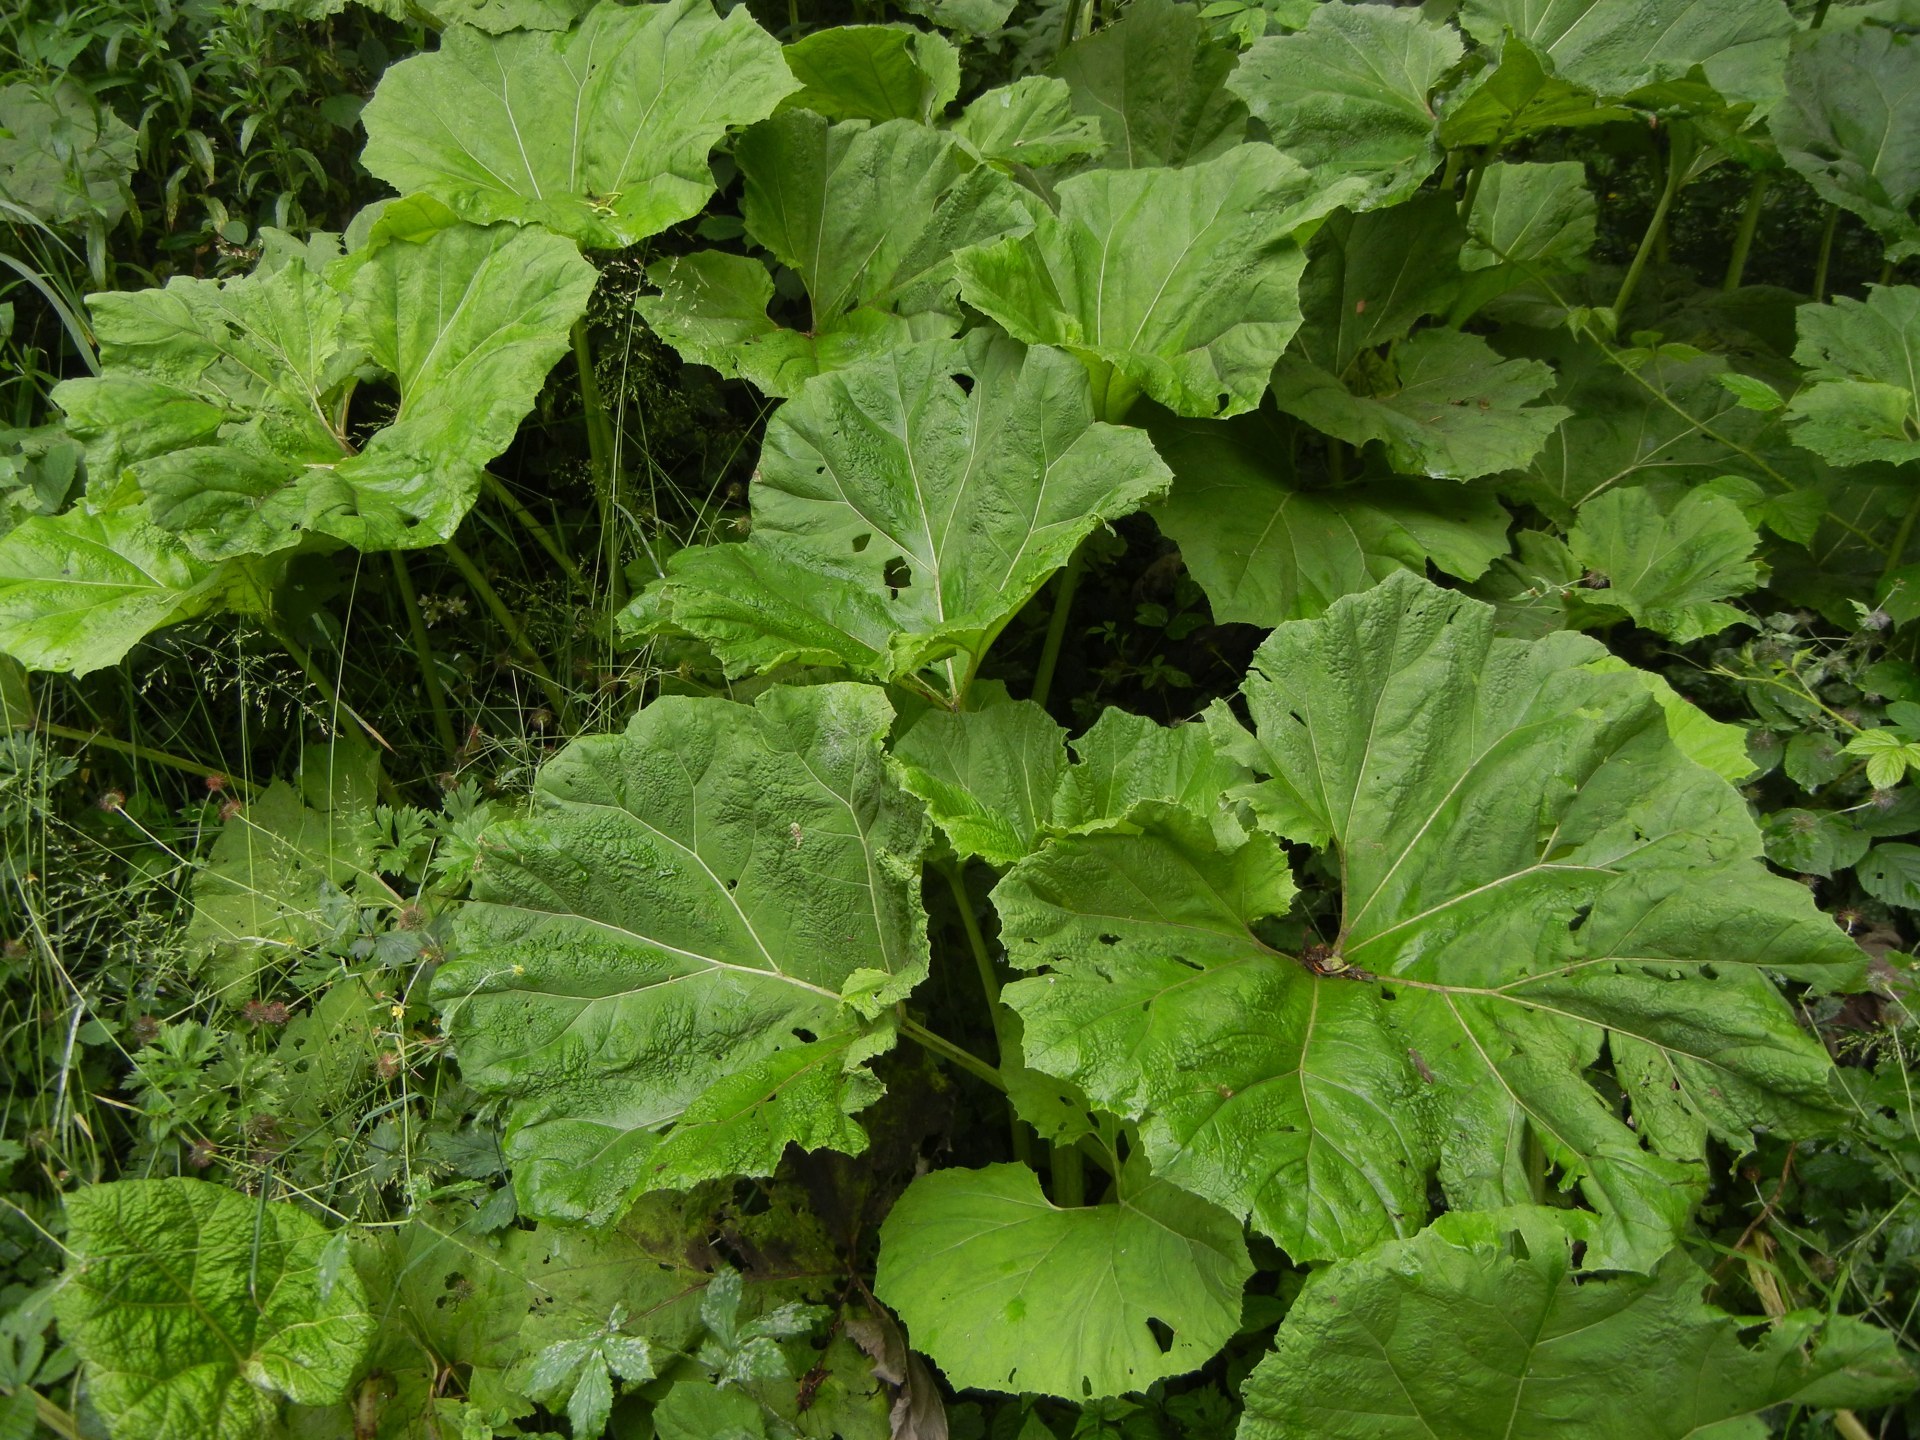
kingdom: Plantae
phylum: Tracheophyta
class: Magnoliopsida
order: Asterales
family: Asteraceae
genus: Petasites
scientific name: Petasites hybridus
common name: Butterbur
